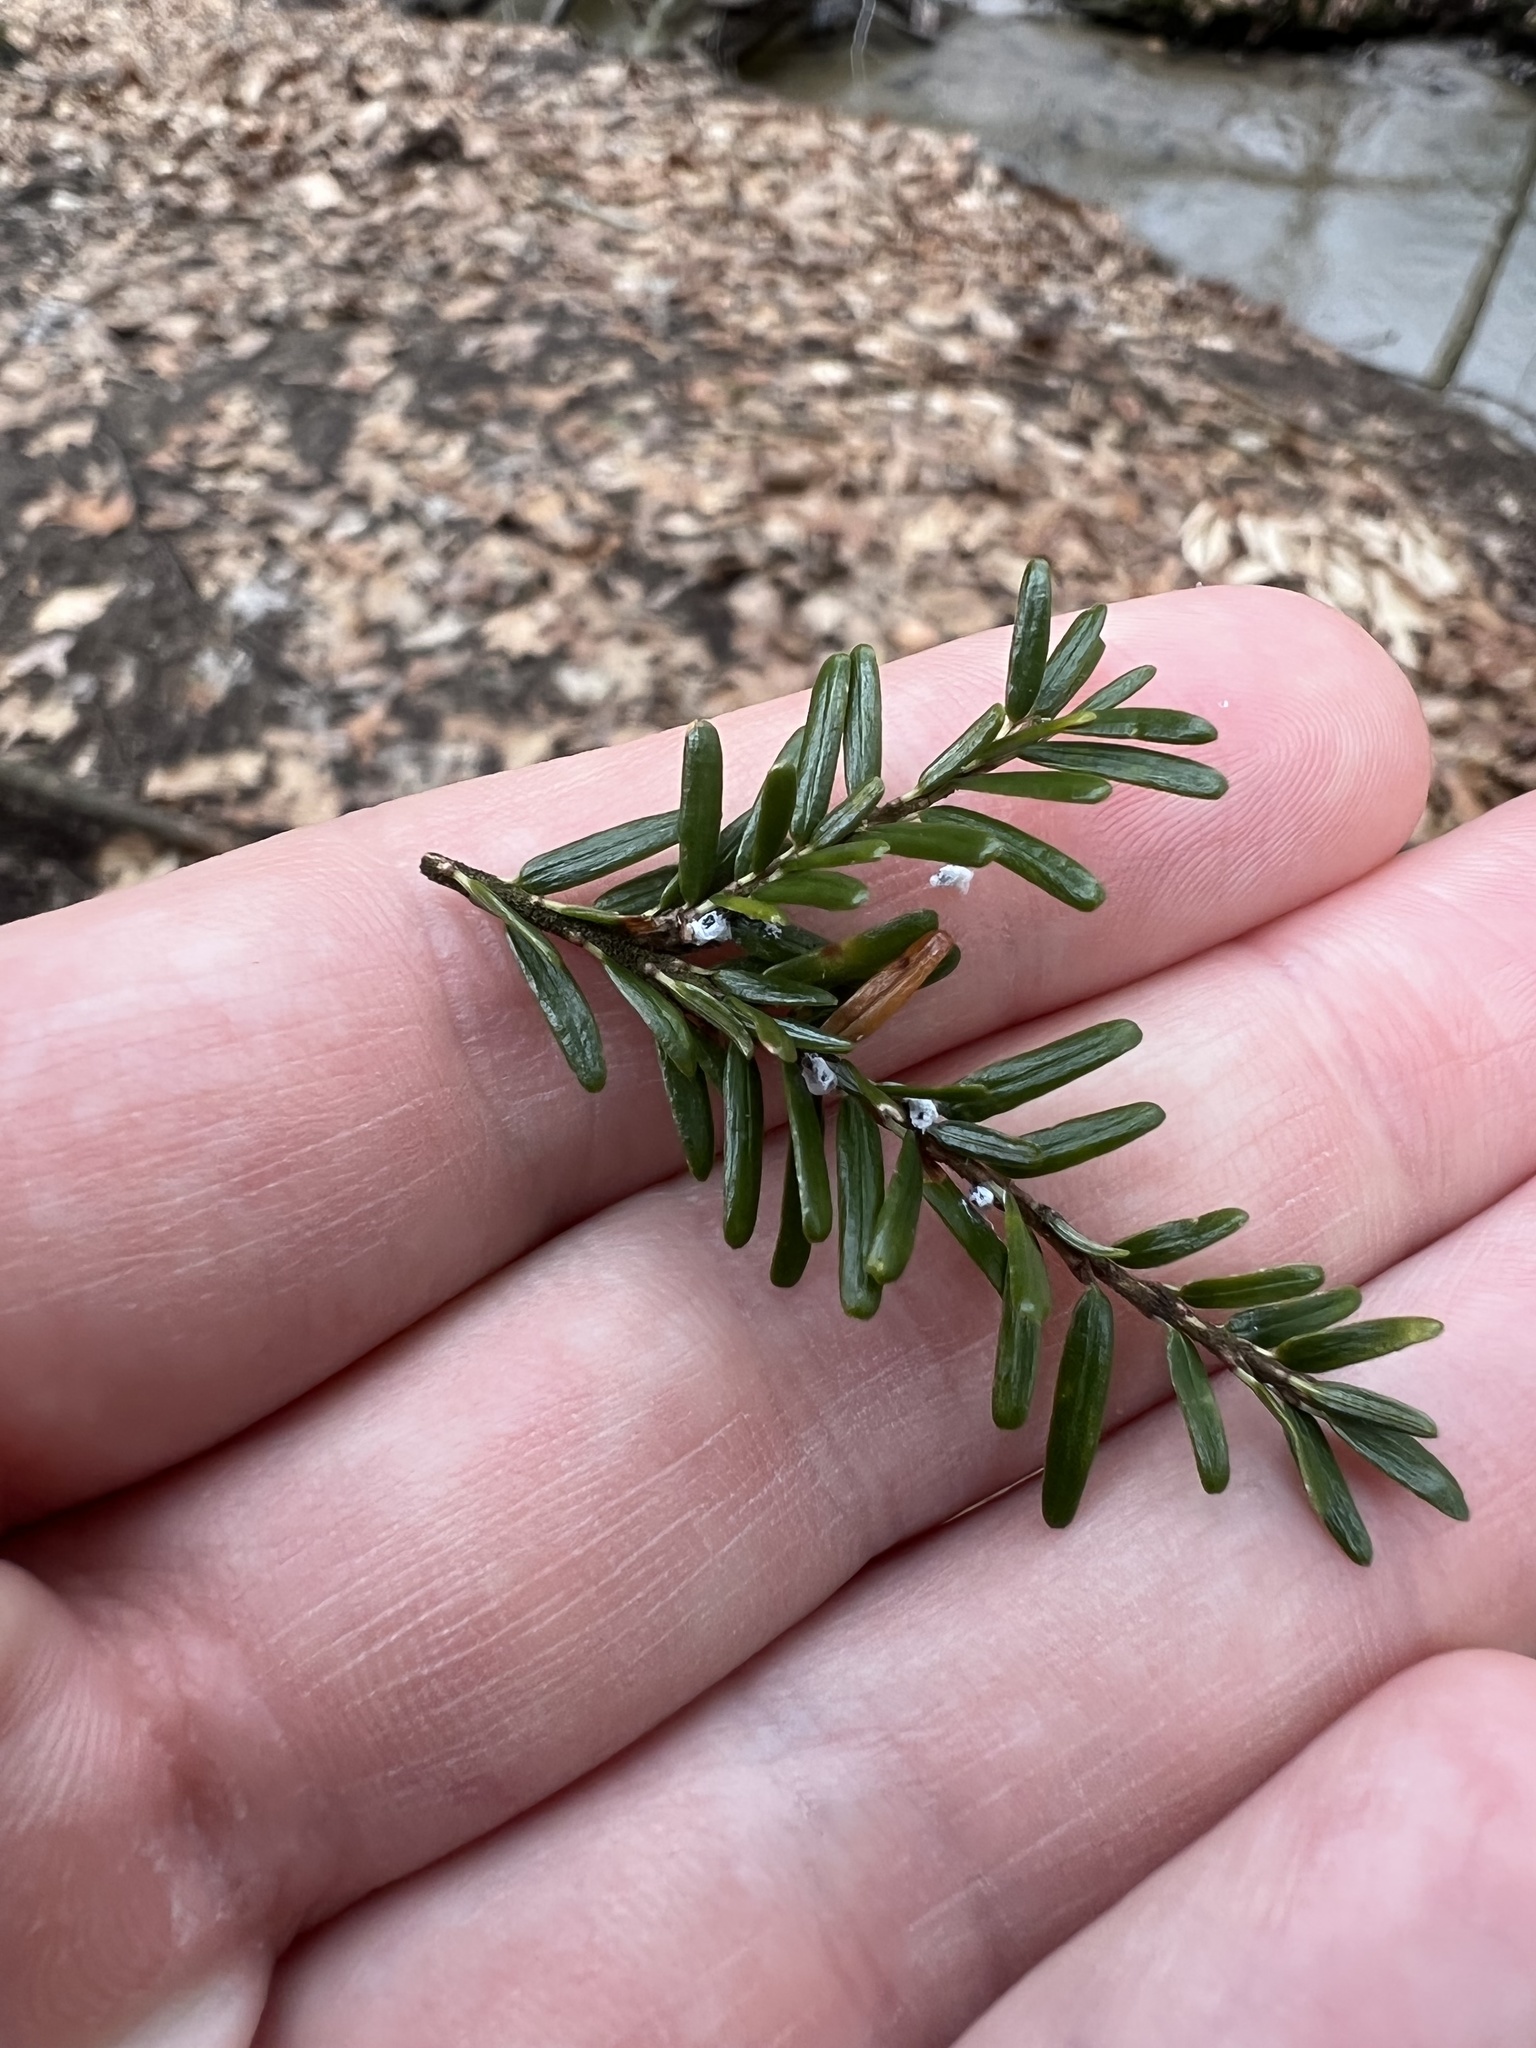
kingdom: Animalia
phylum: Arthropoda
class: Insecta
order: Hemiptera
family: Adelgidae
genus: Adelges
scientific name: Adelges tsugae
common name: Hemlock woolly adelgid
